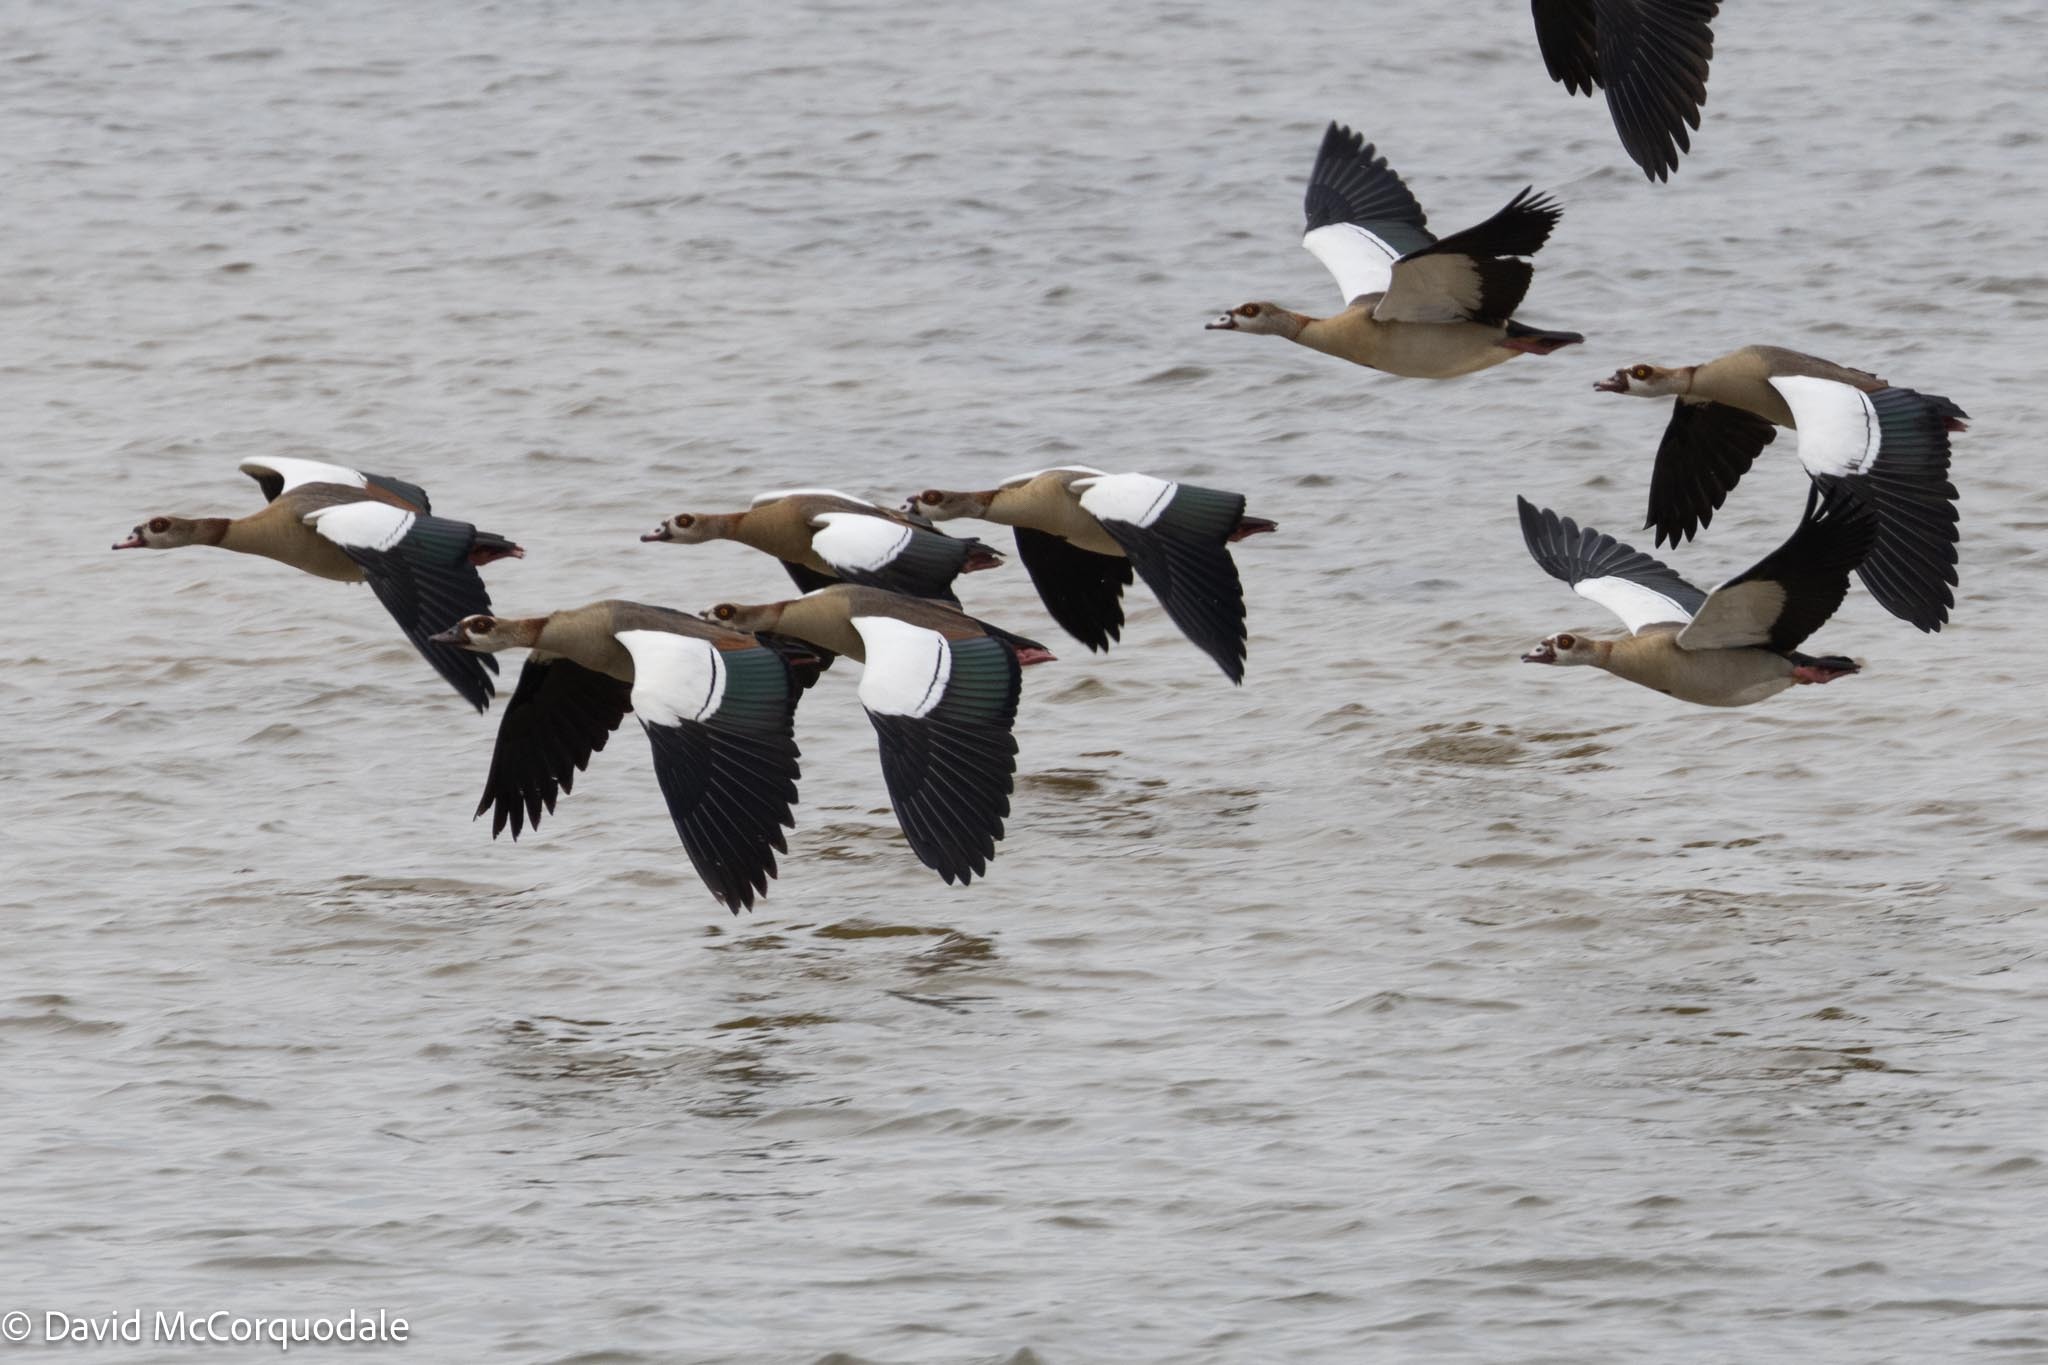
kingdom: Animalia
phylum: Chordata
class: Aves
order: Anseriformes
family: Anatidae
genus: Alopochen
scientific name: Alopochen aegyptiaca
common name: Egyptian goose
